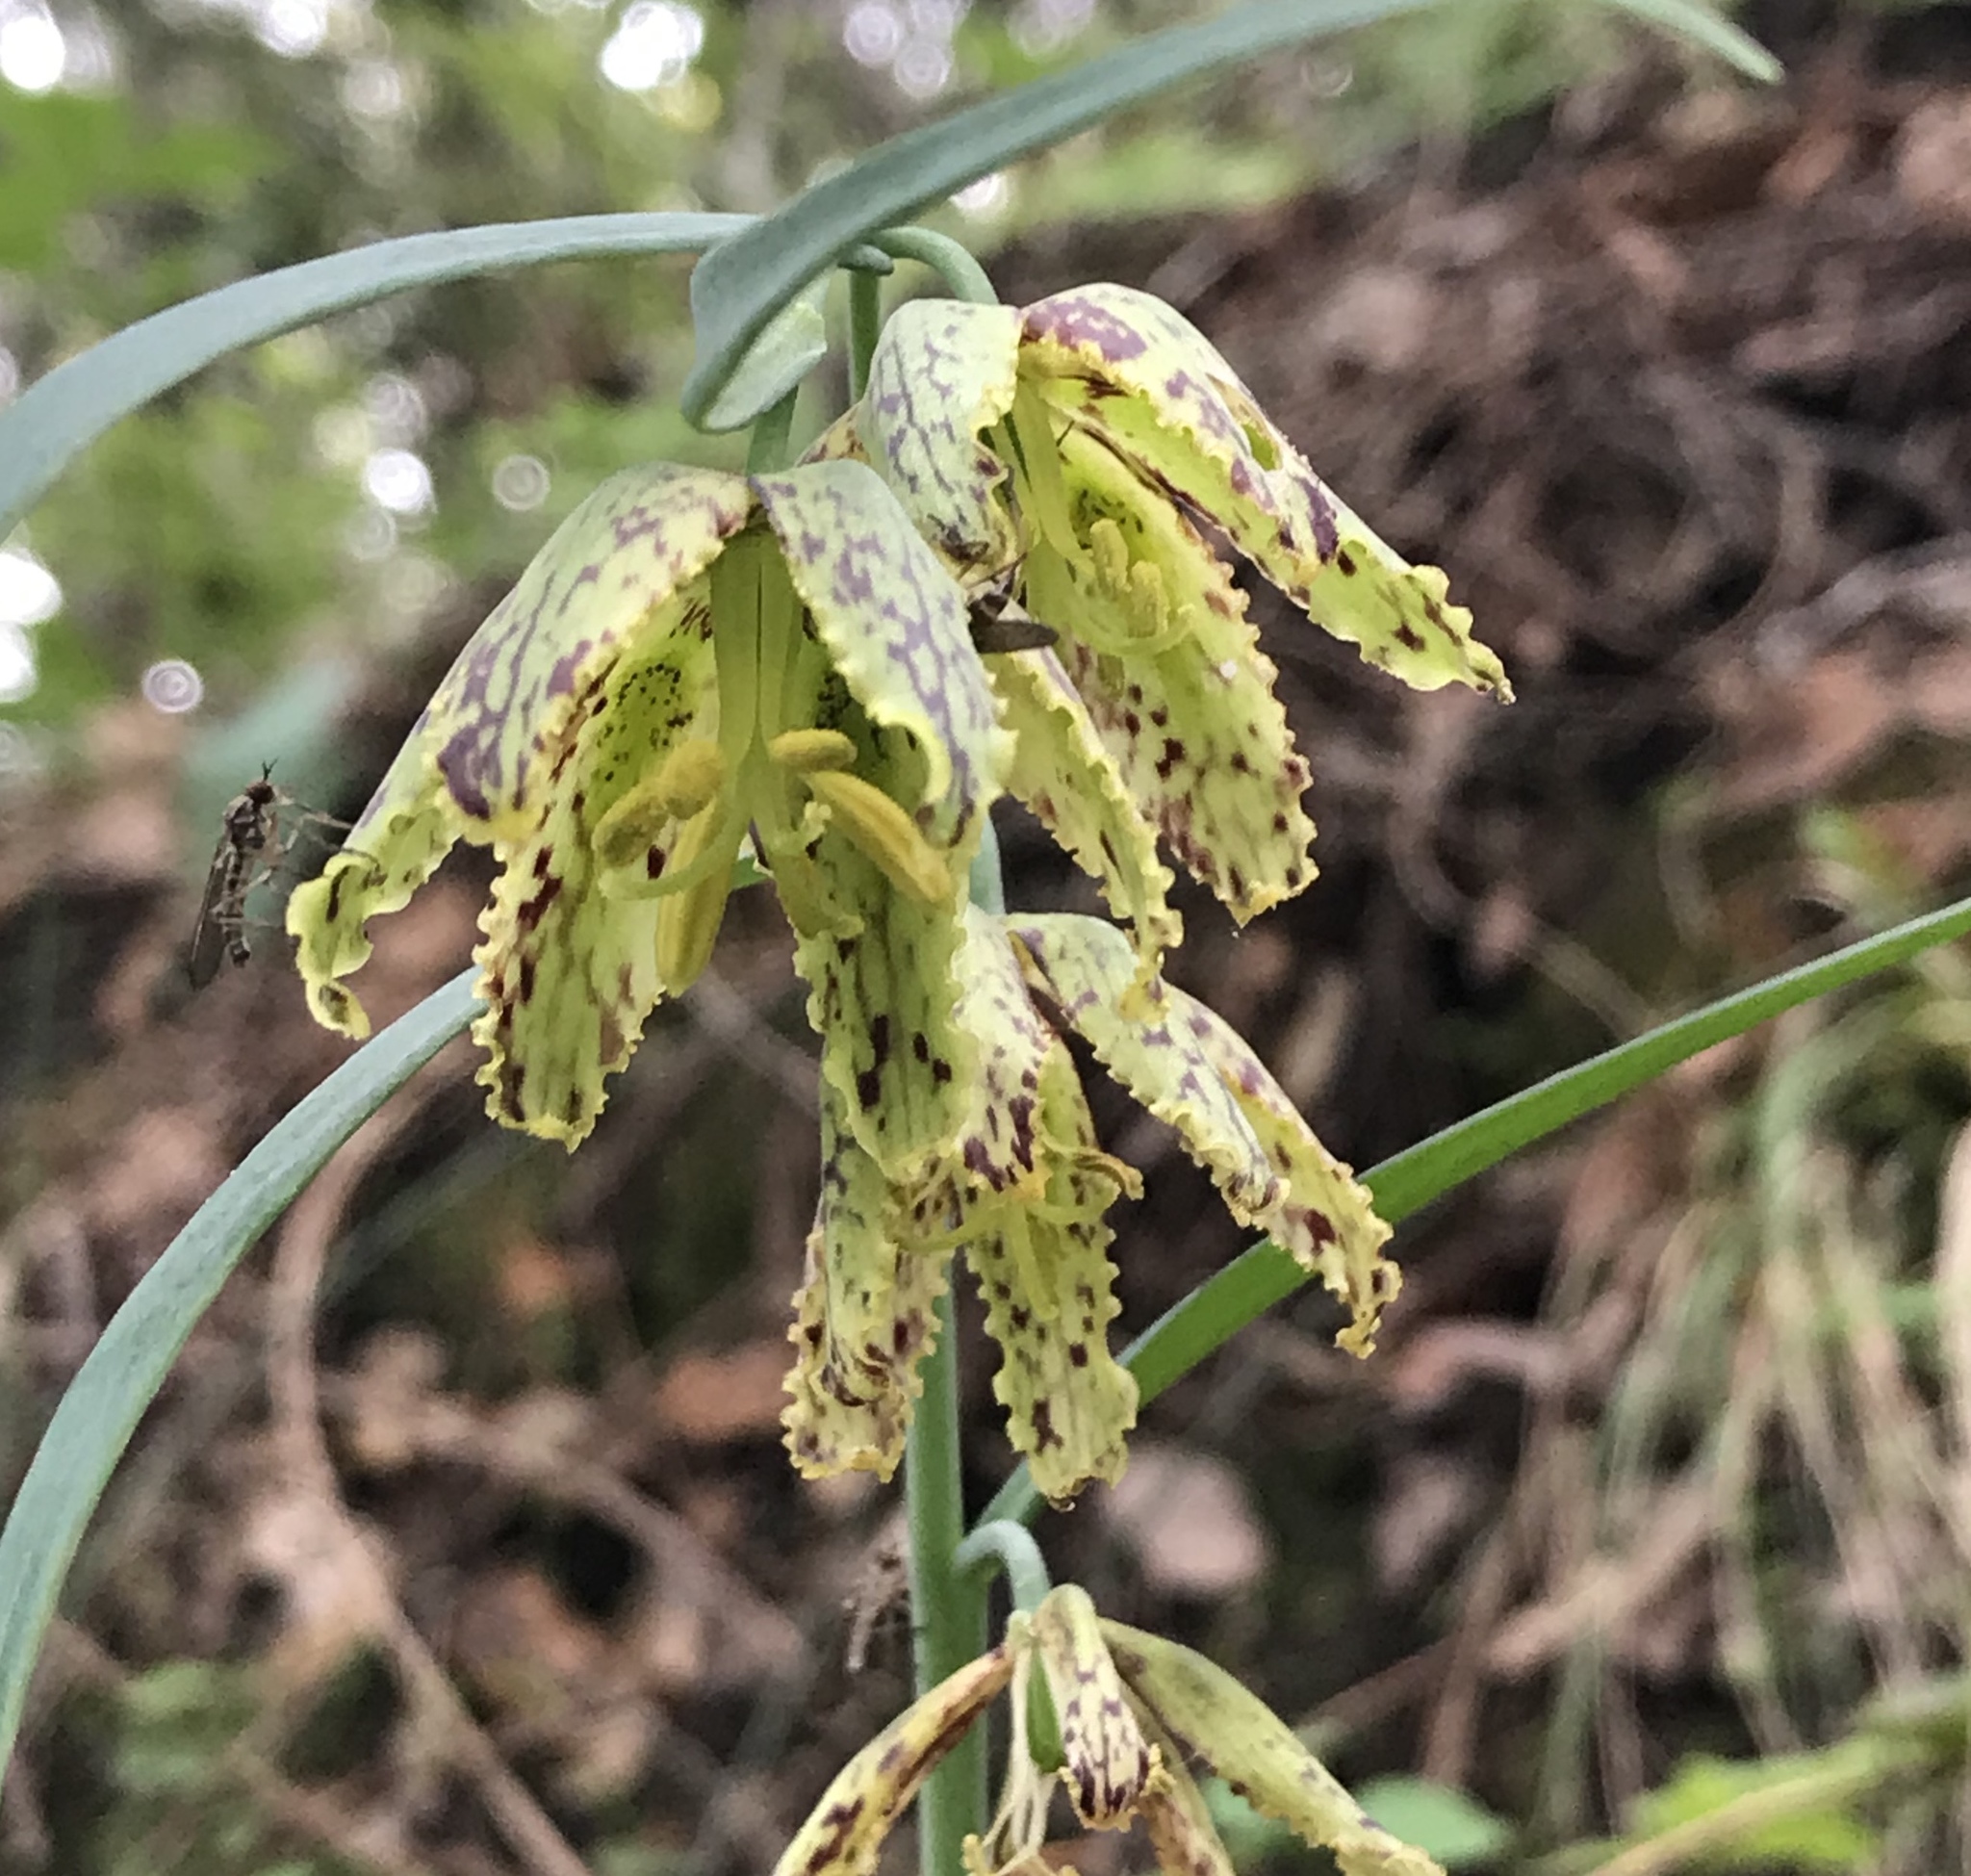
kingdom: Plantae
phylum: Tracheophyta
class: Liliopsida
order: Liliales
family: Liliaceae
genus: Fritillaria
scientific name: Fritillaria affinis
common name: Ojai fritillary
